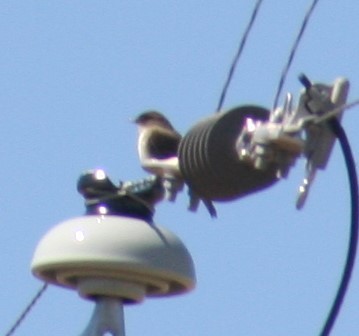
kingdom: Animalia
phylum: Chordata
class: Aves
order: Passeriformes
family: Hirundinidae
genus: Progne
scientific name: Progne subis
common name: Purple martin
